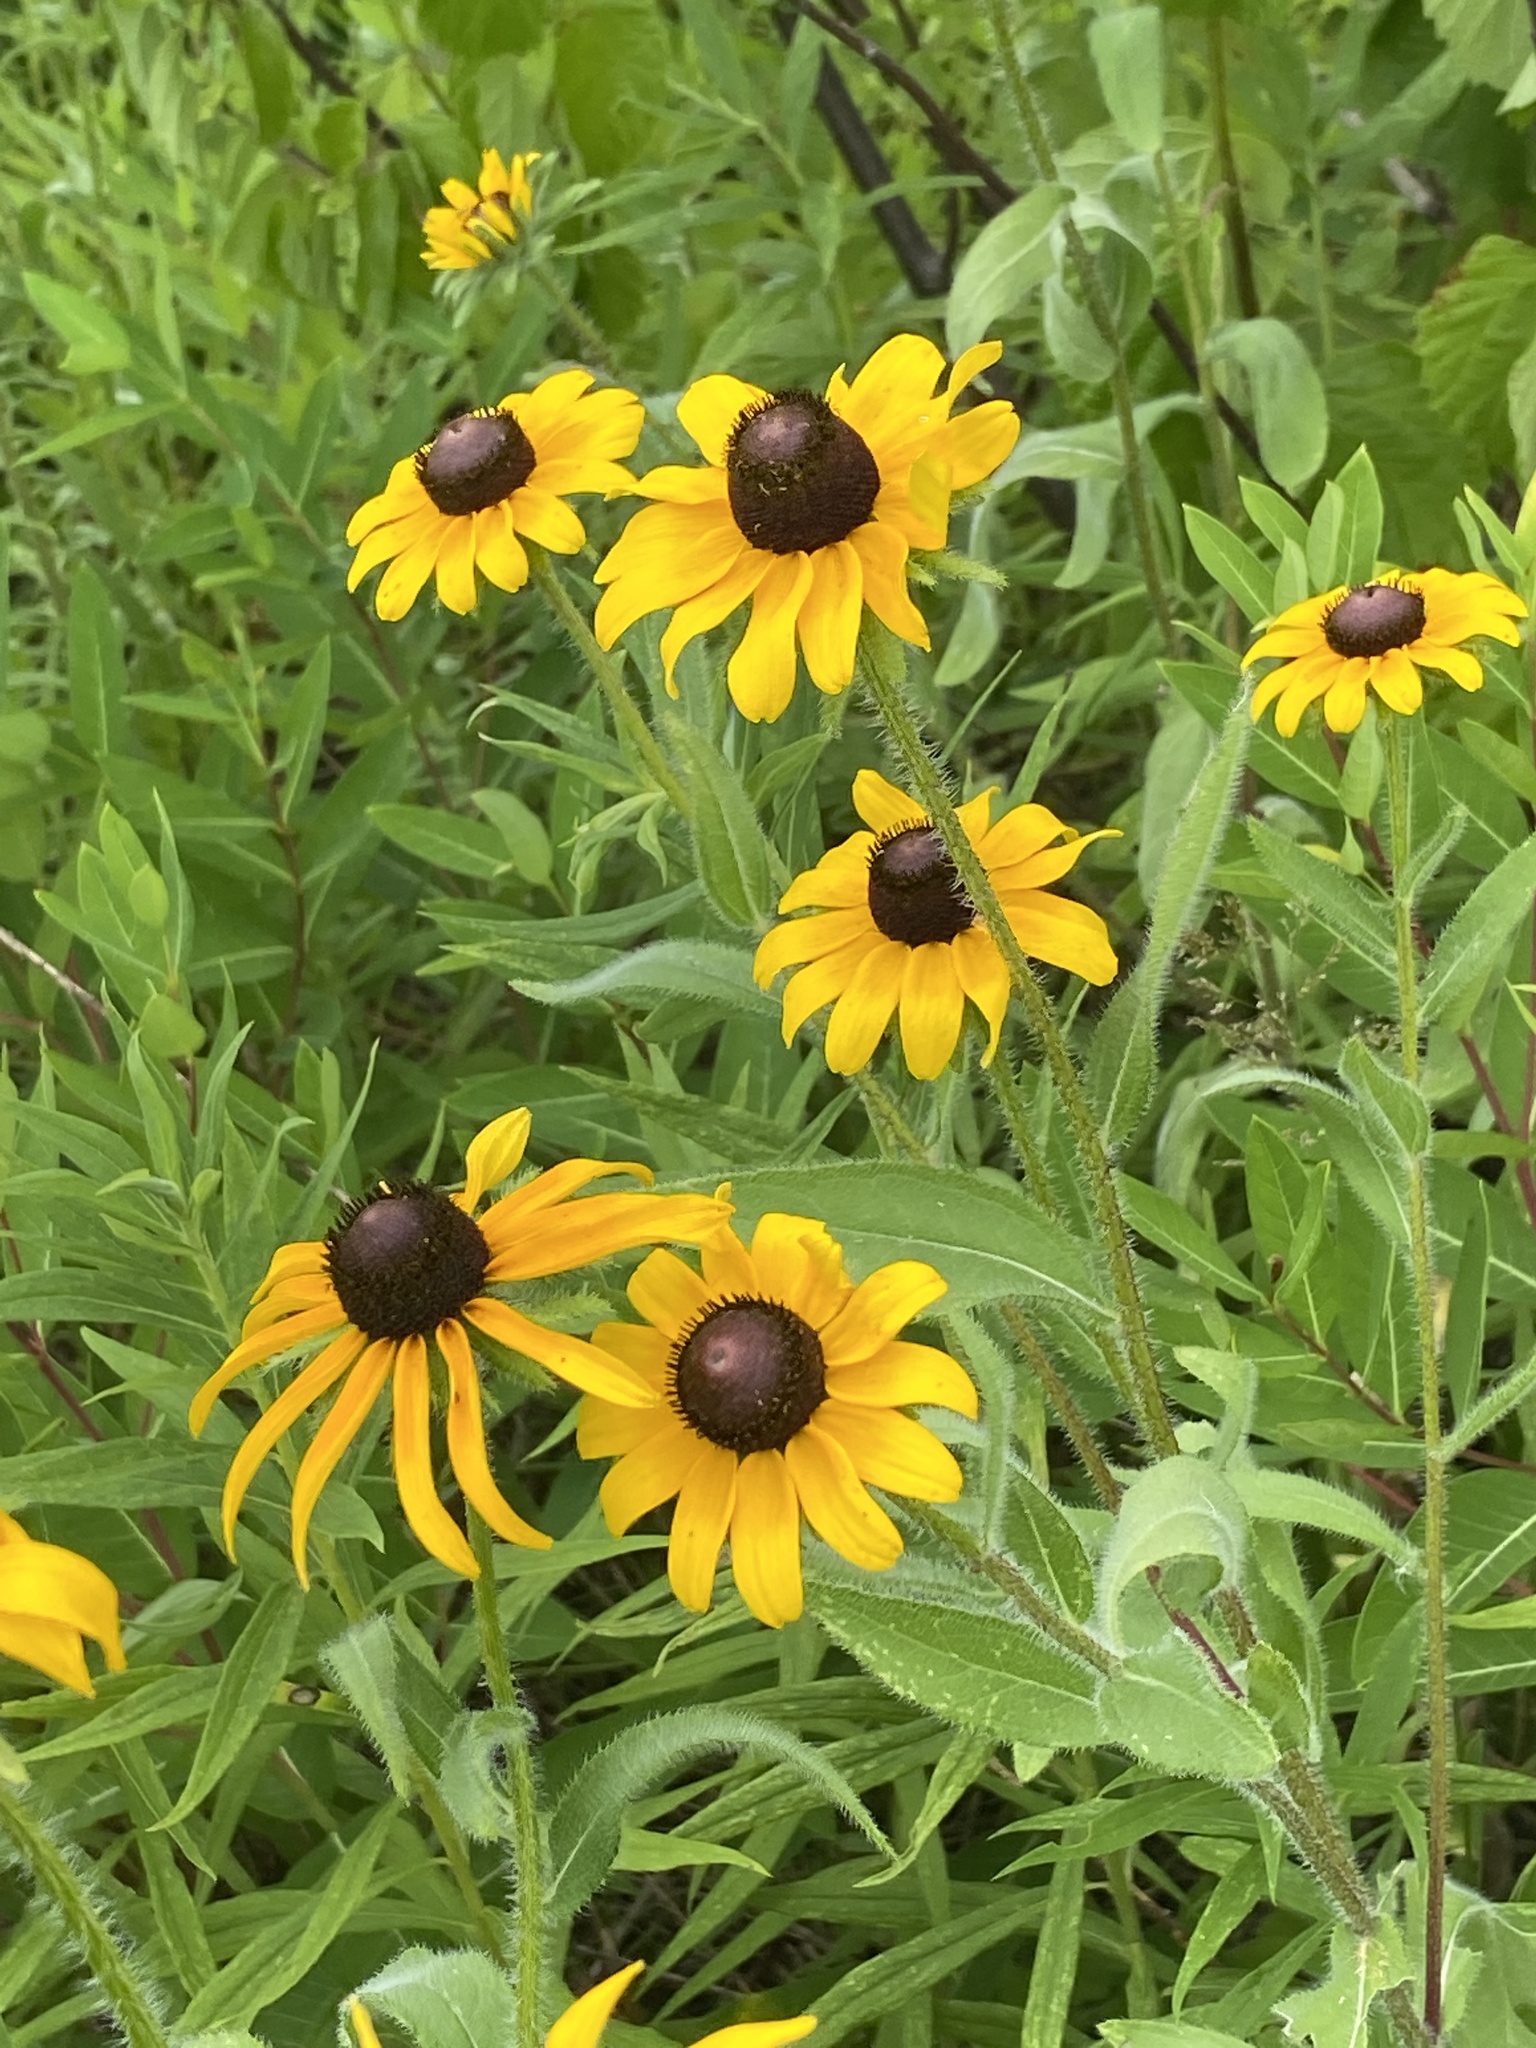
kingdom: Plantae
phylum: Tracheophyta
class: Magnoliopsida
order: Asterales
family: Asteraceae
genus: Rudbeckia
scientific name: Rudbeckia hirta
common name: Black-eyed-susan
